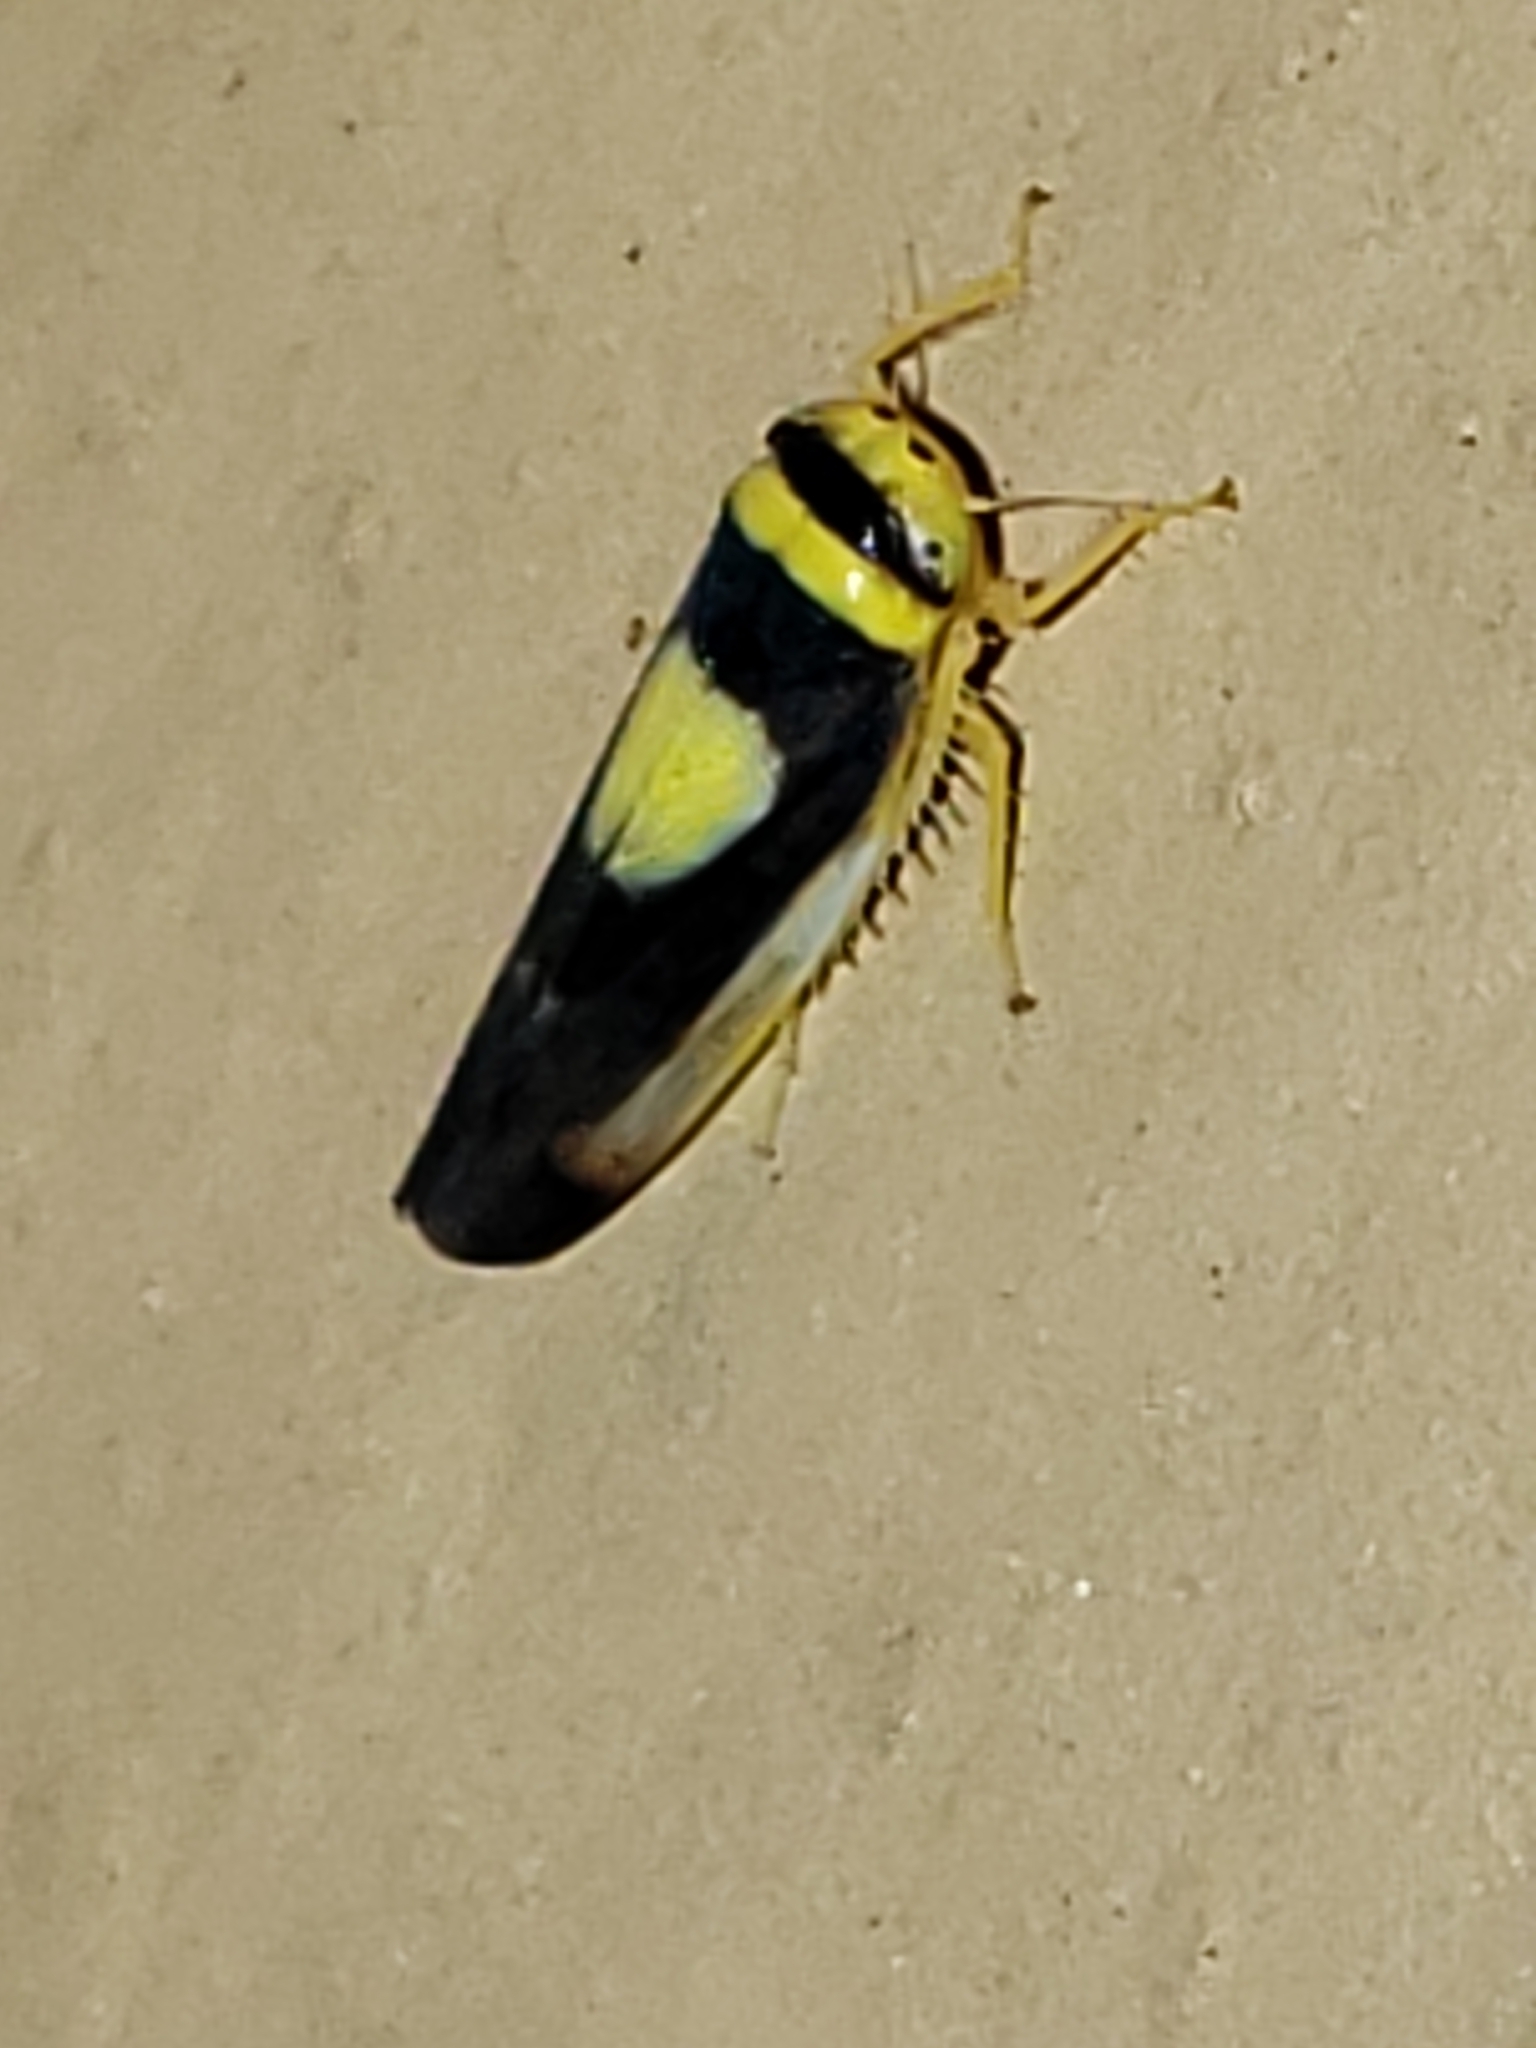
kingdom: Animalia
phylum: Arthropoda
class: Insecta
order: Hemiptera
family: Cicadellidae
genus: Colladonus
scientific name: Colladonus clitellarius
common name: The saddleback leafhopper
